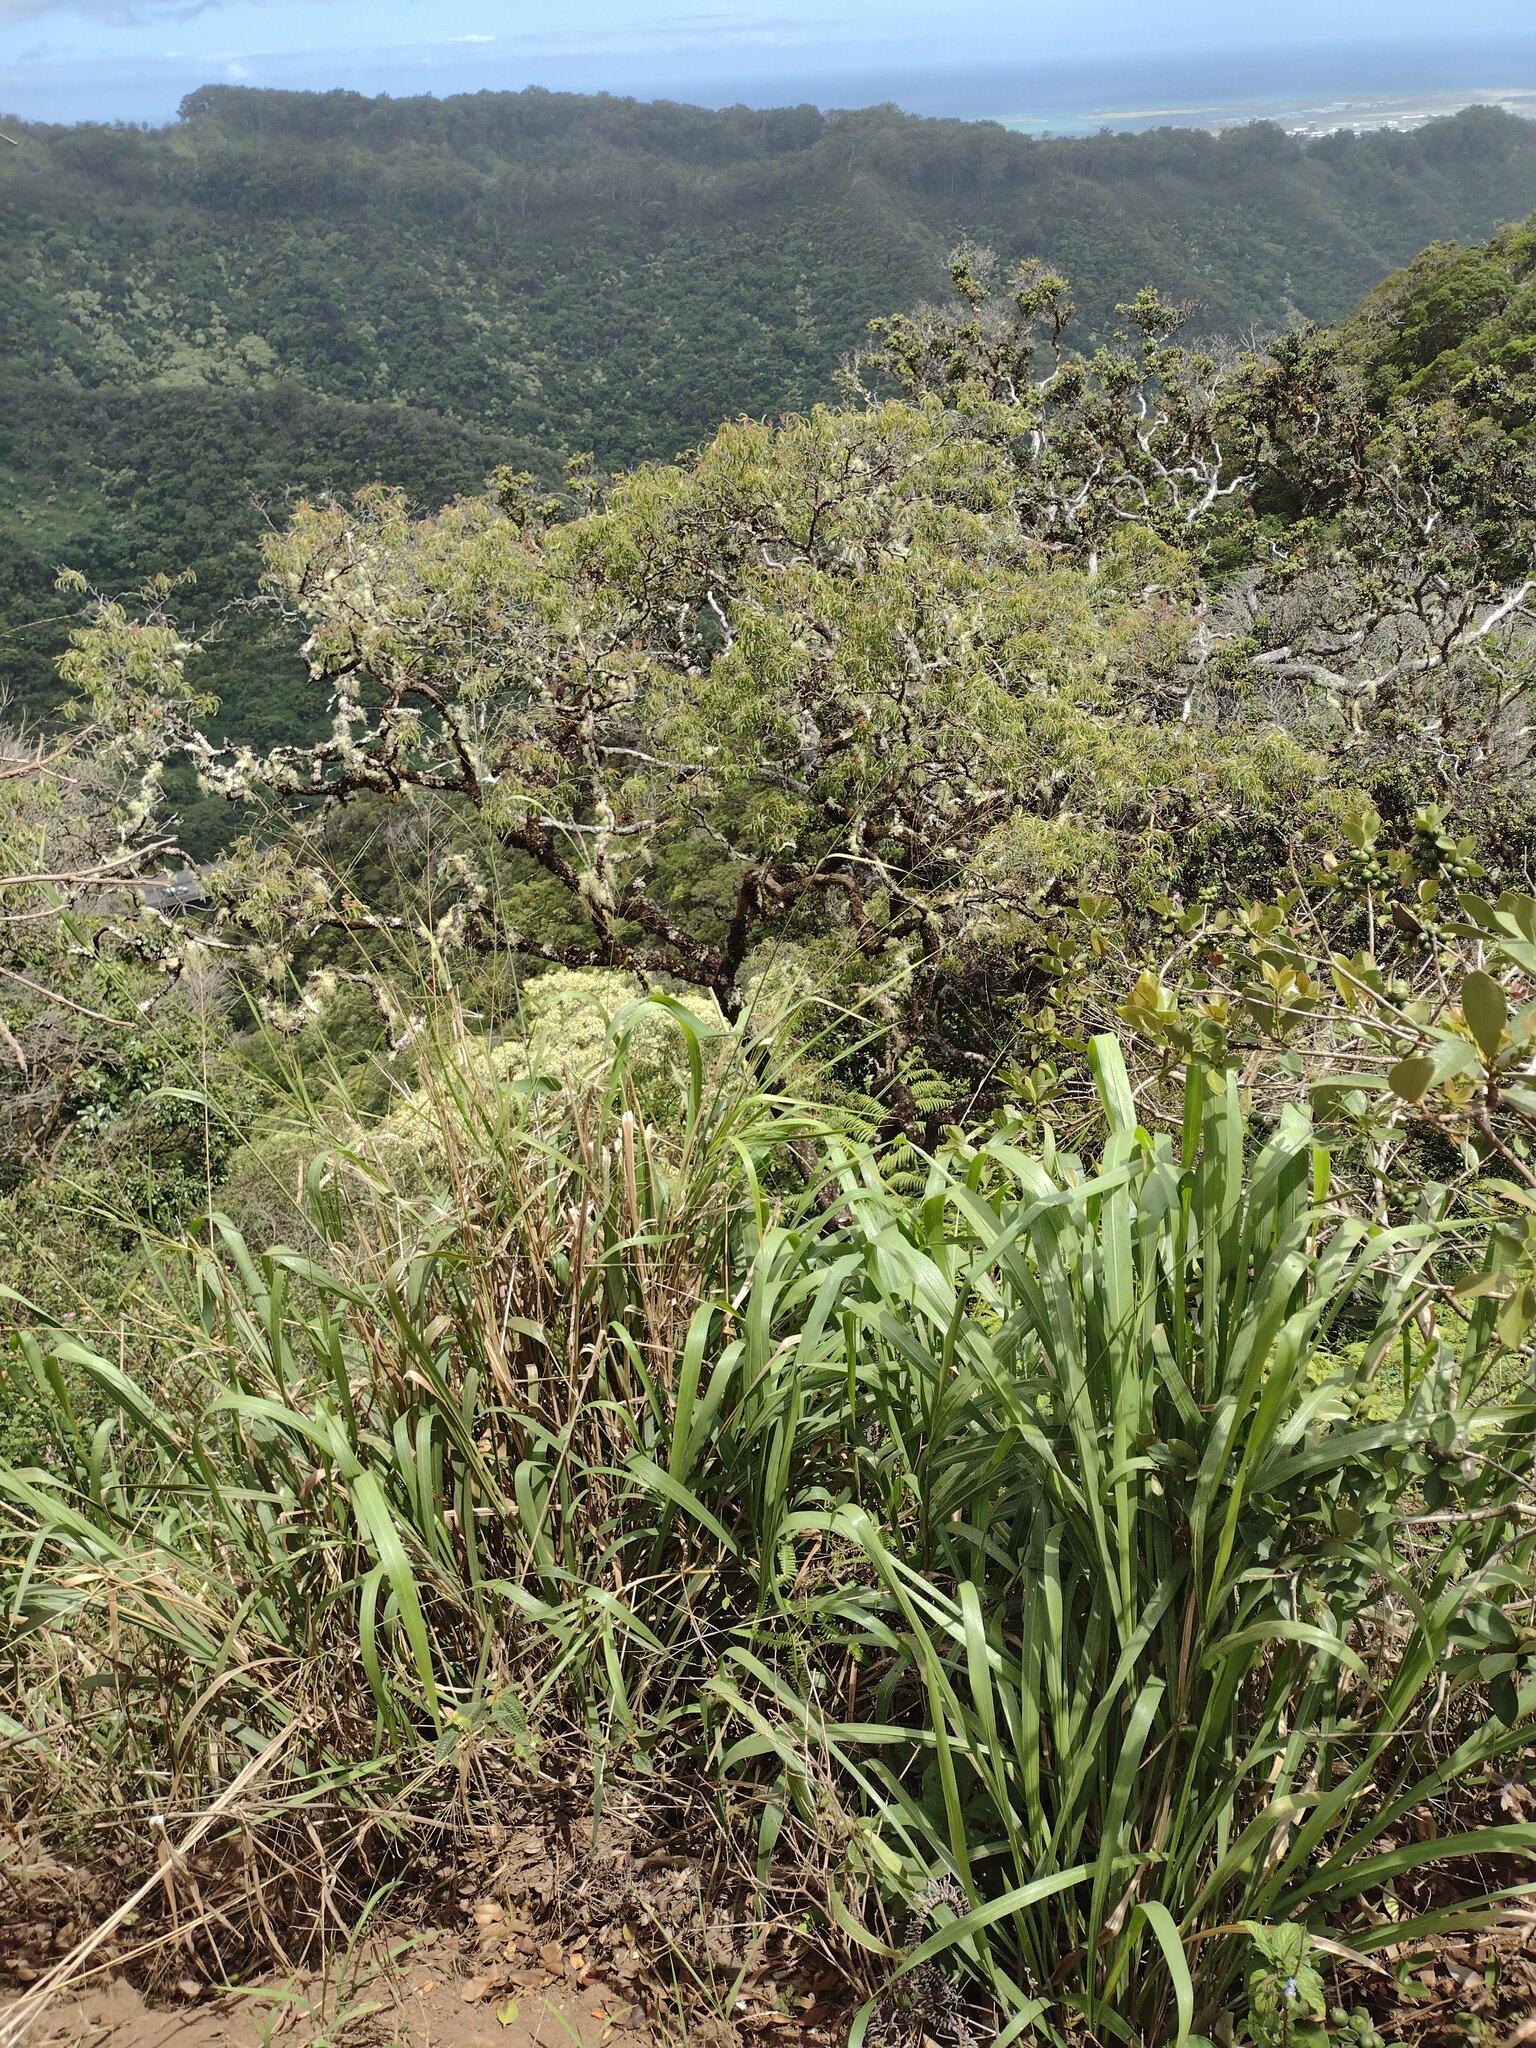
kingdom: Plantae
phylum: Tracheophyta
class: Liliopsida
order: Poales
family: Poaceae
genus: Megathyrsus
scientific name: Megathyrsus maximus
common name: Guineagrass
